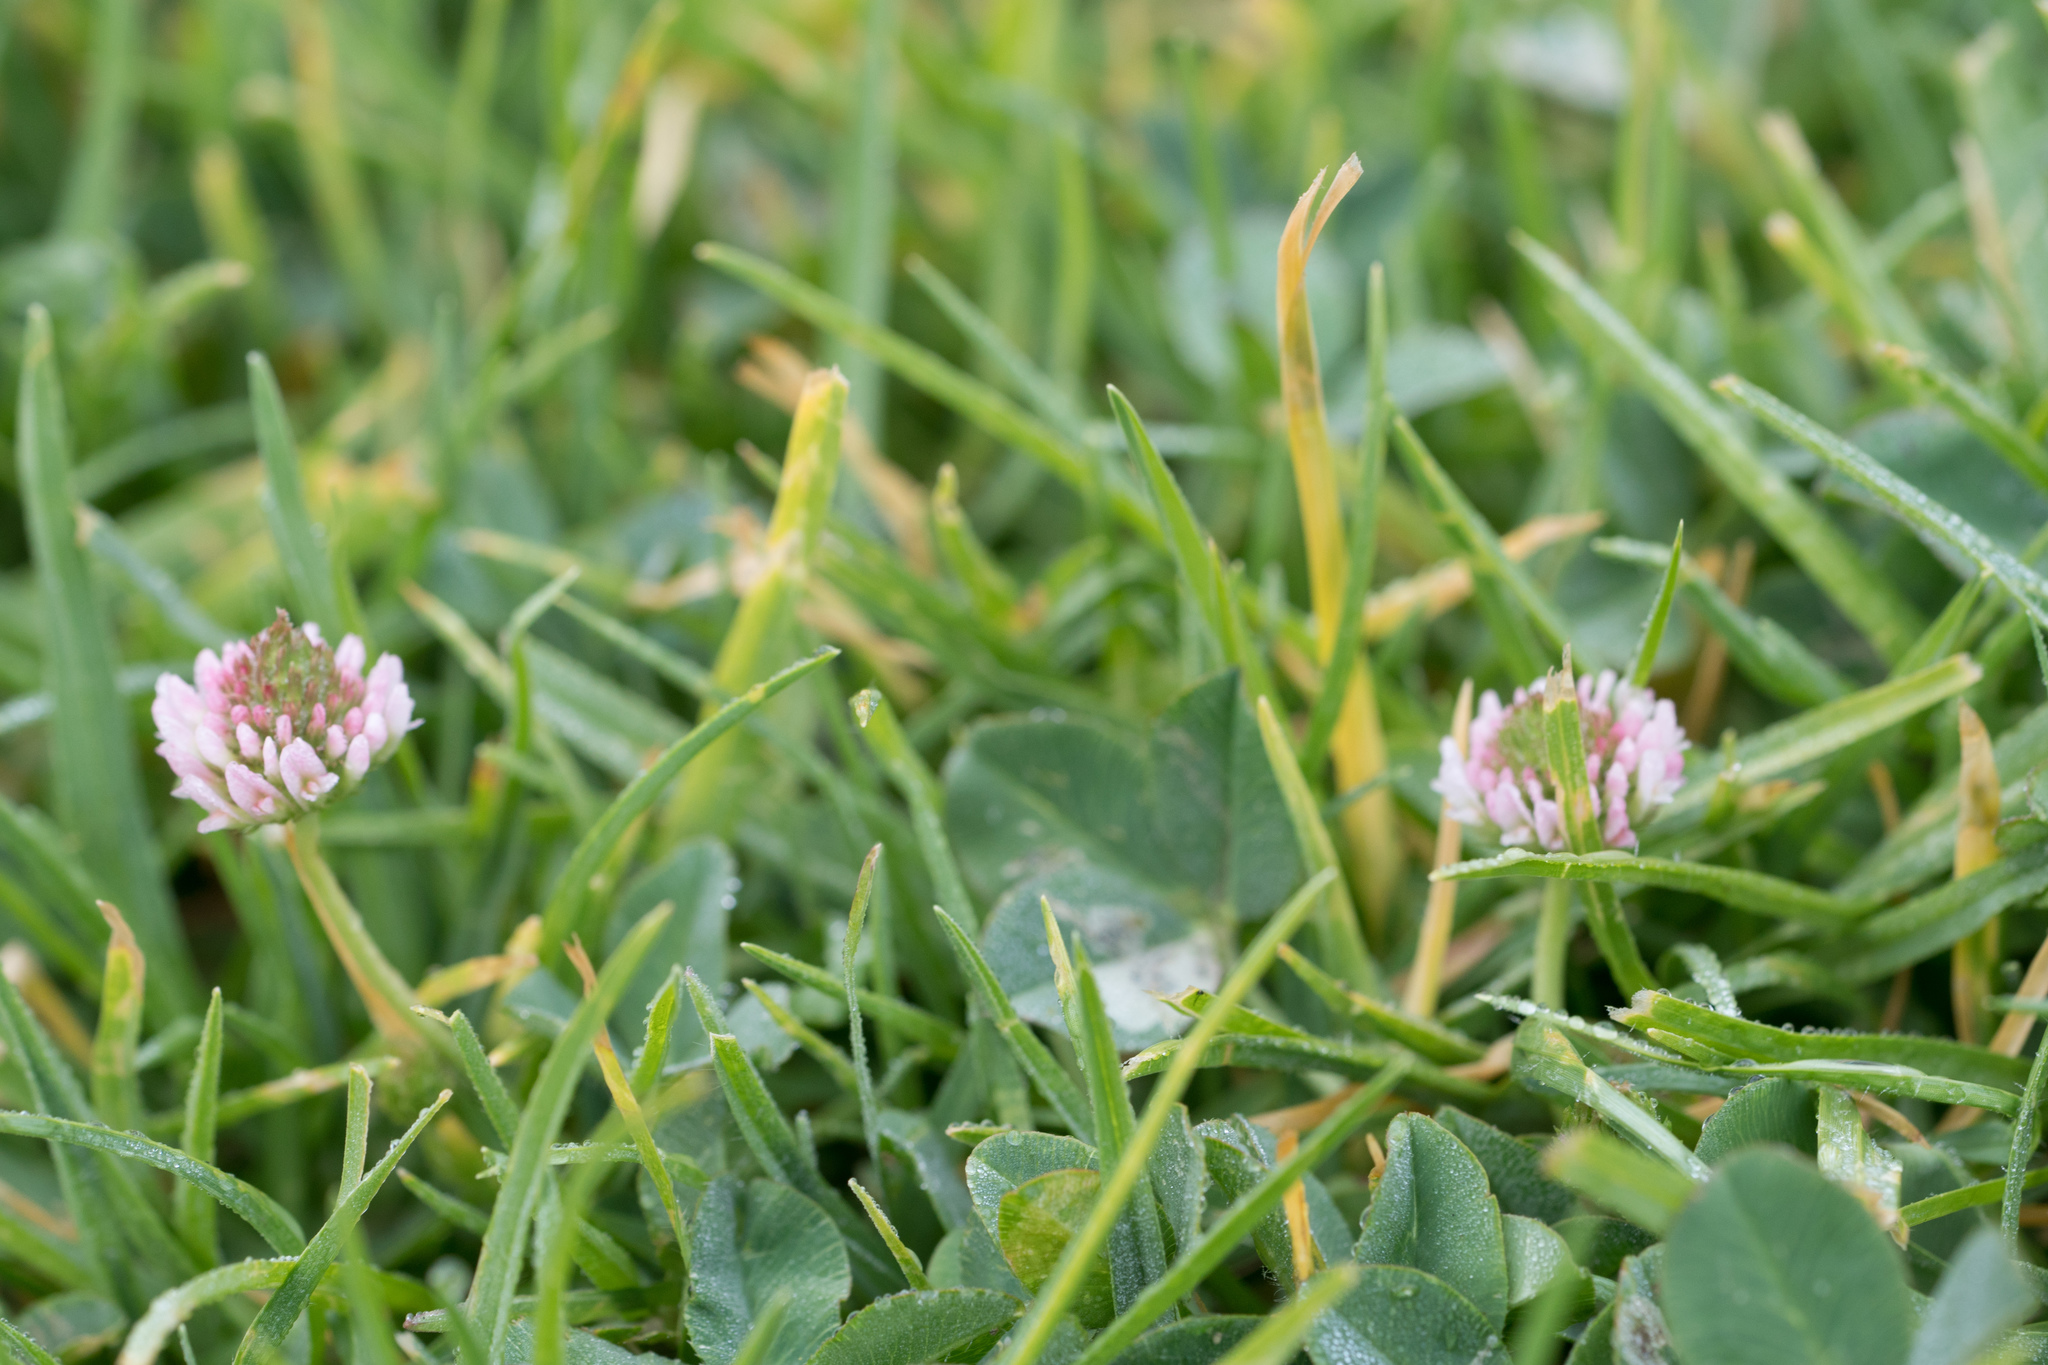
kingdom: Plantae
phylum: Tracheophyta
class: Magnoliopsida
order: Fabales
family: Fabaceae
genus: Trifolium
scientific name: Trifolium fragiferum
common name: Strawberry clover
